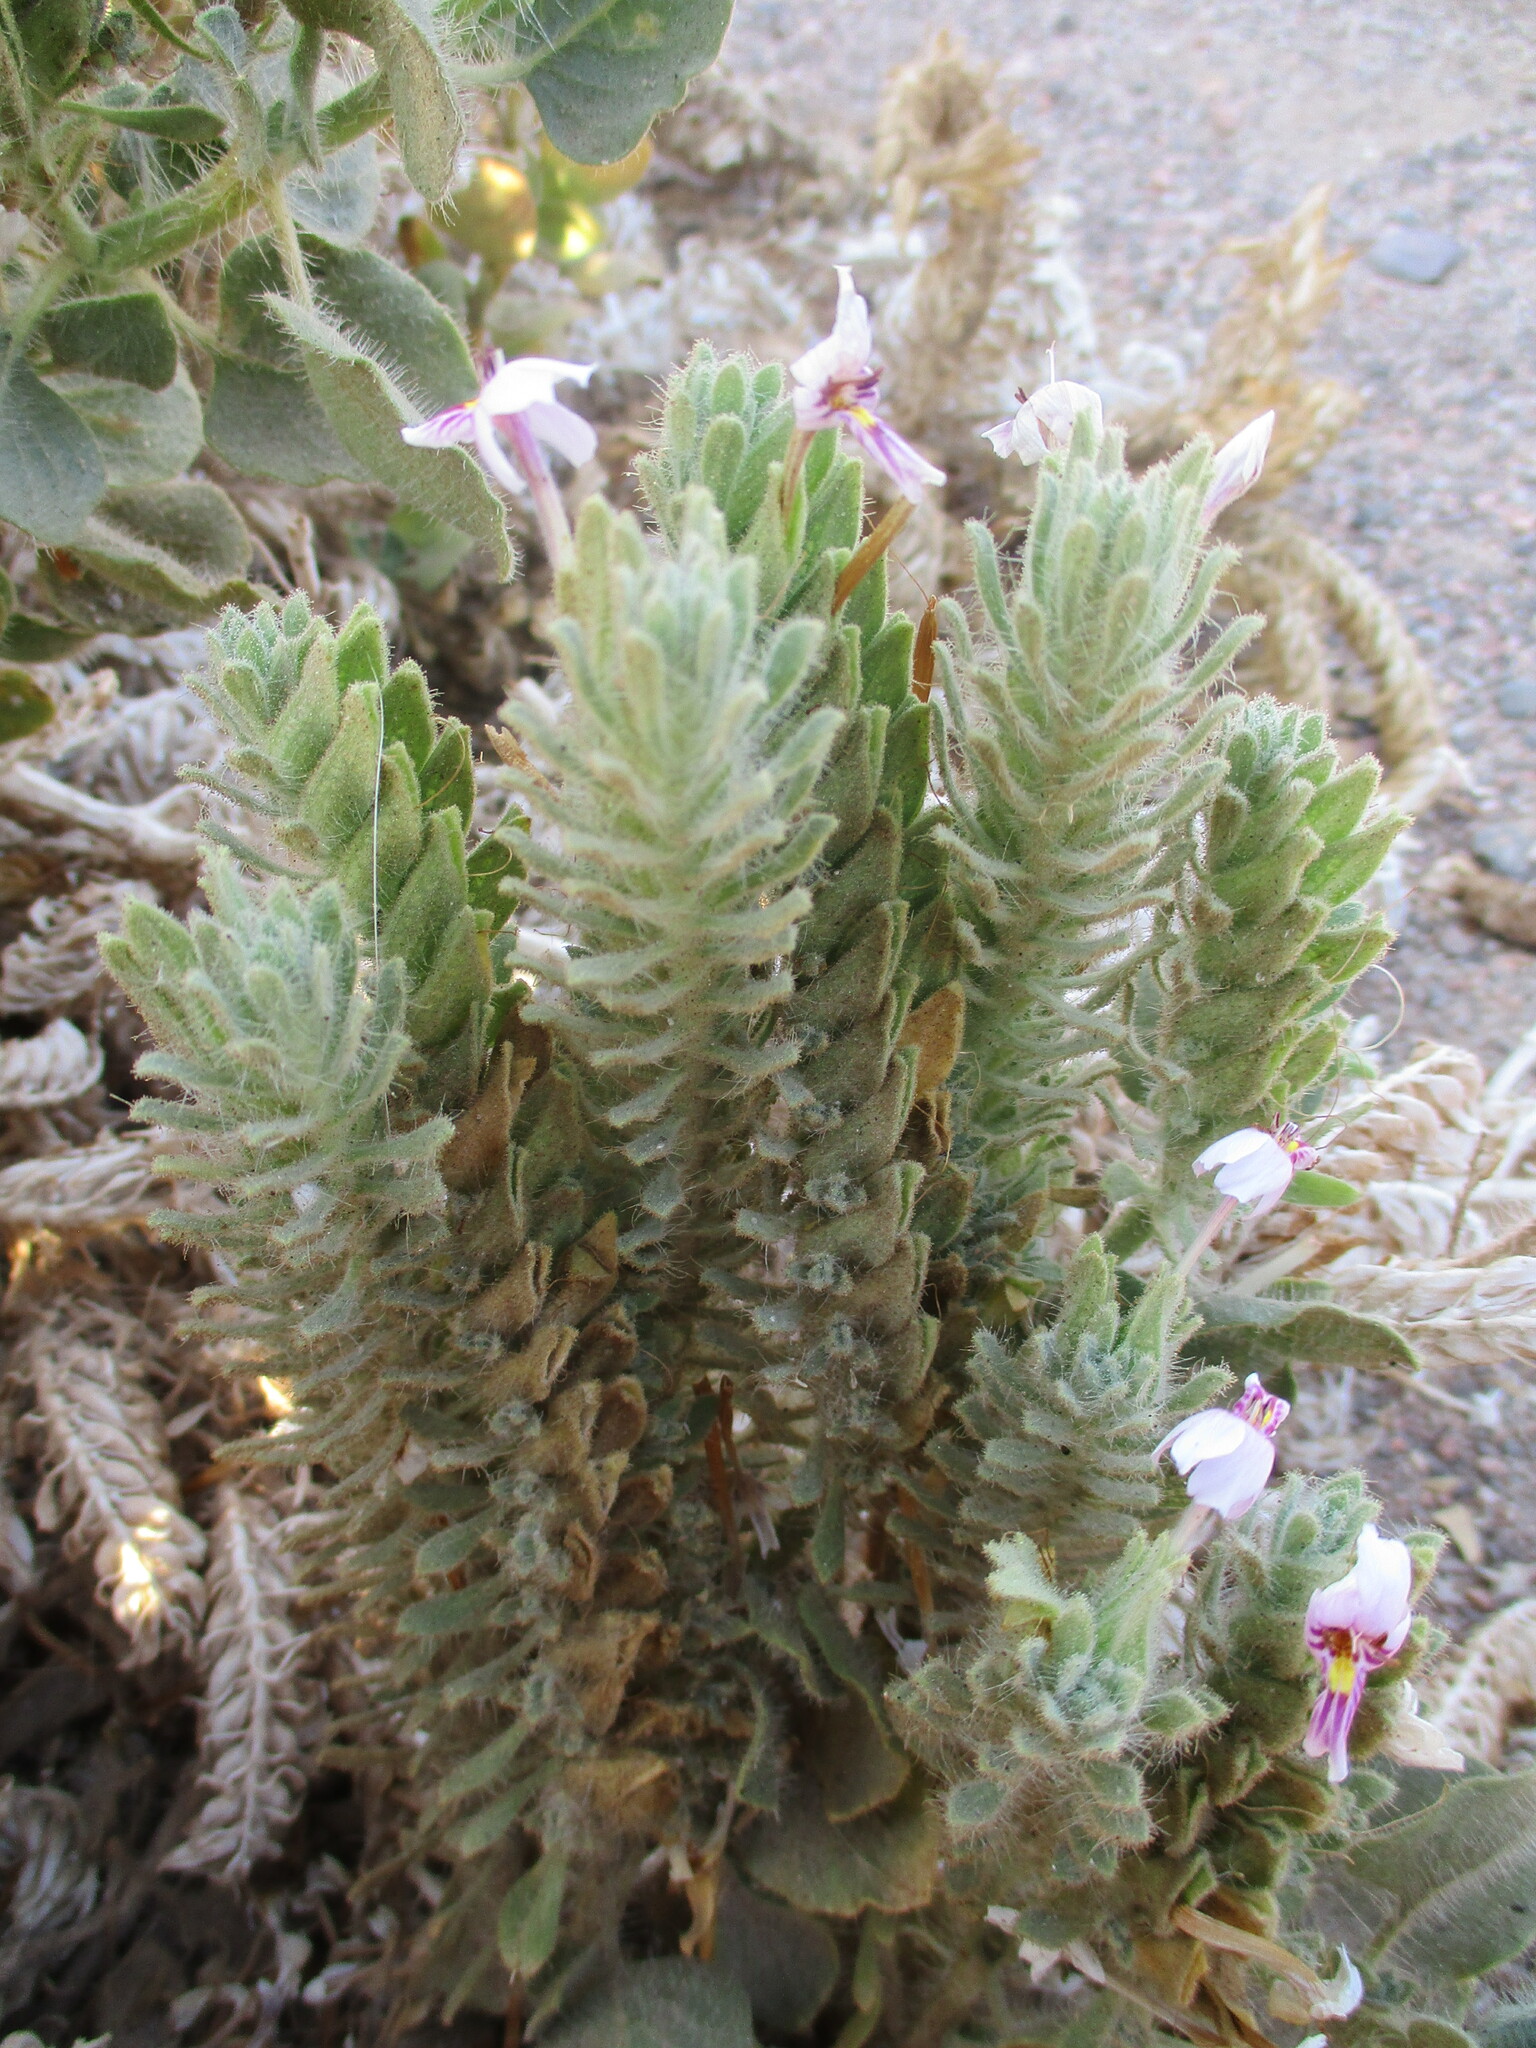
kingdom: Plantae
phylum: Tracheophyta
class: Magnoliopsida
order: Lamiales
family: Acanthaceae
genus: Petalidium
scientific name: Petalidium angustitubum
